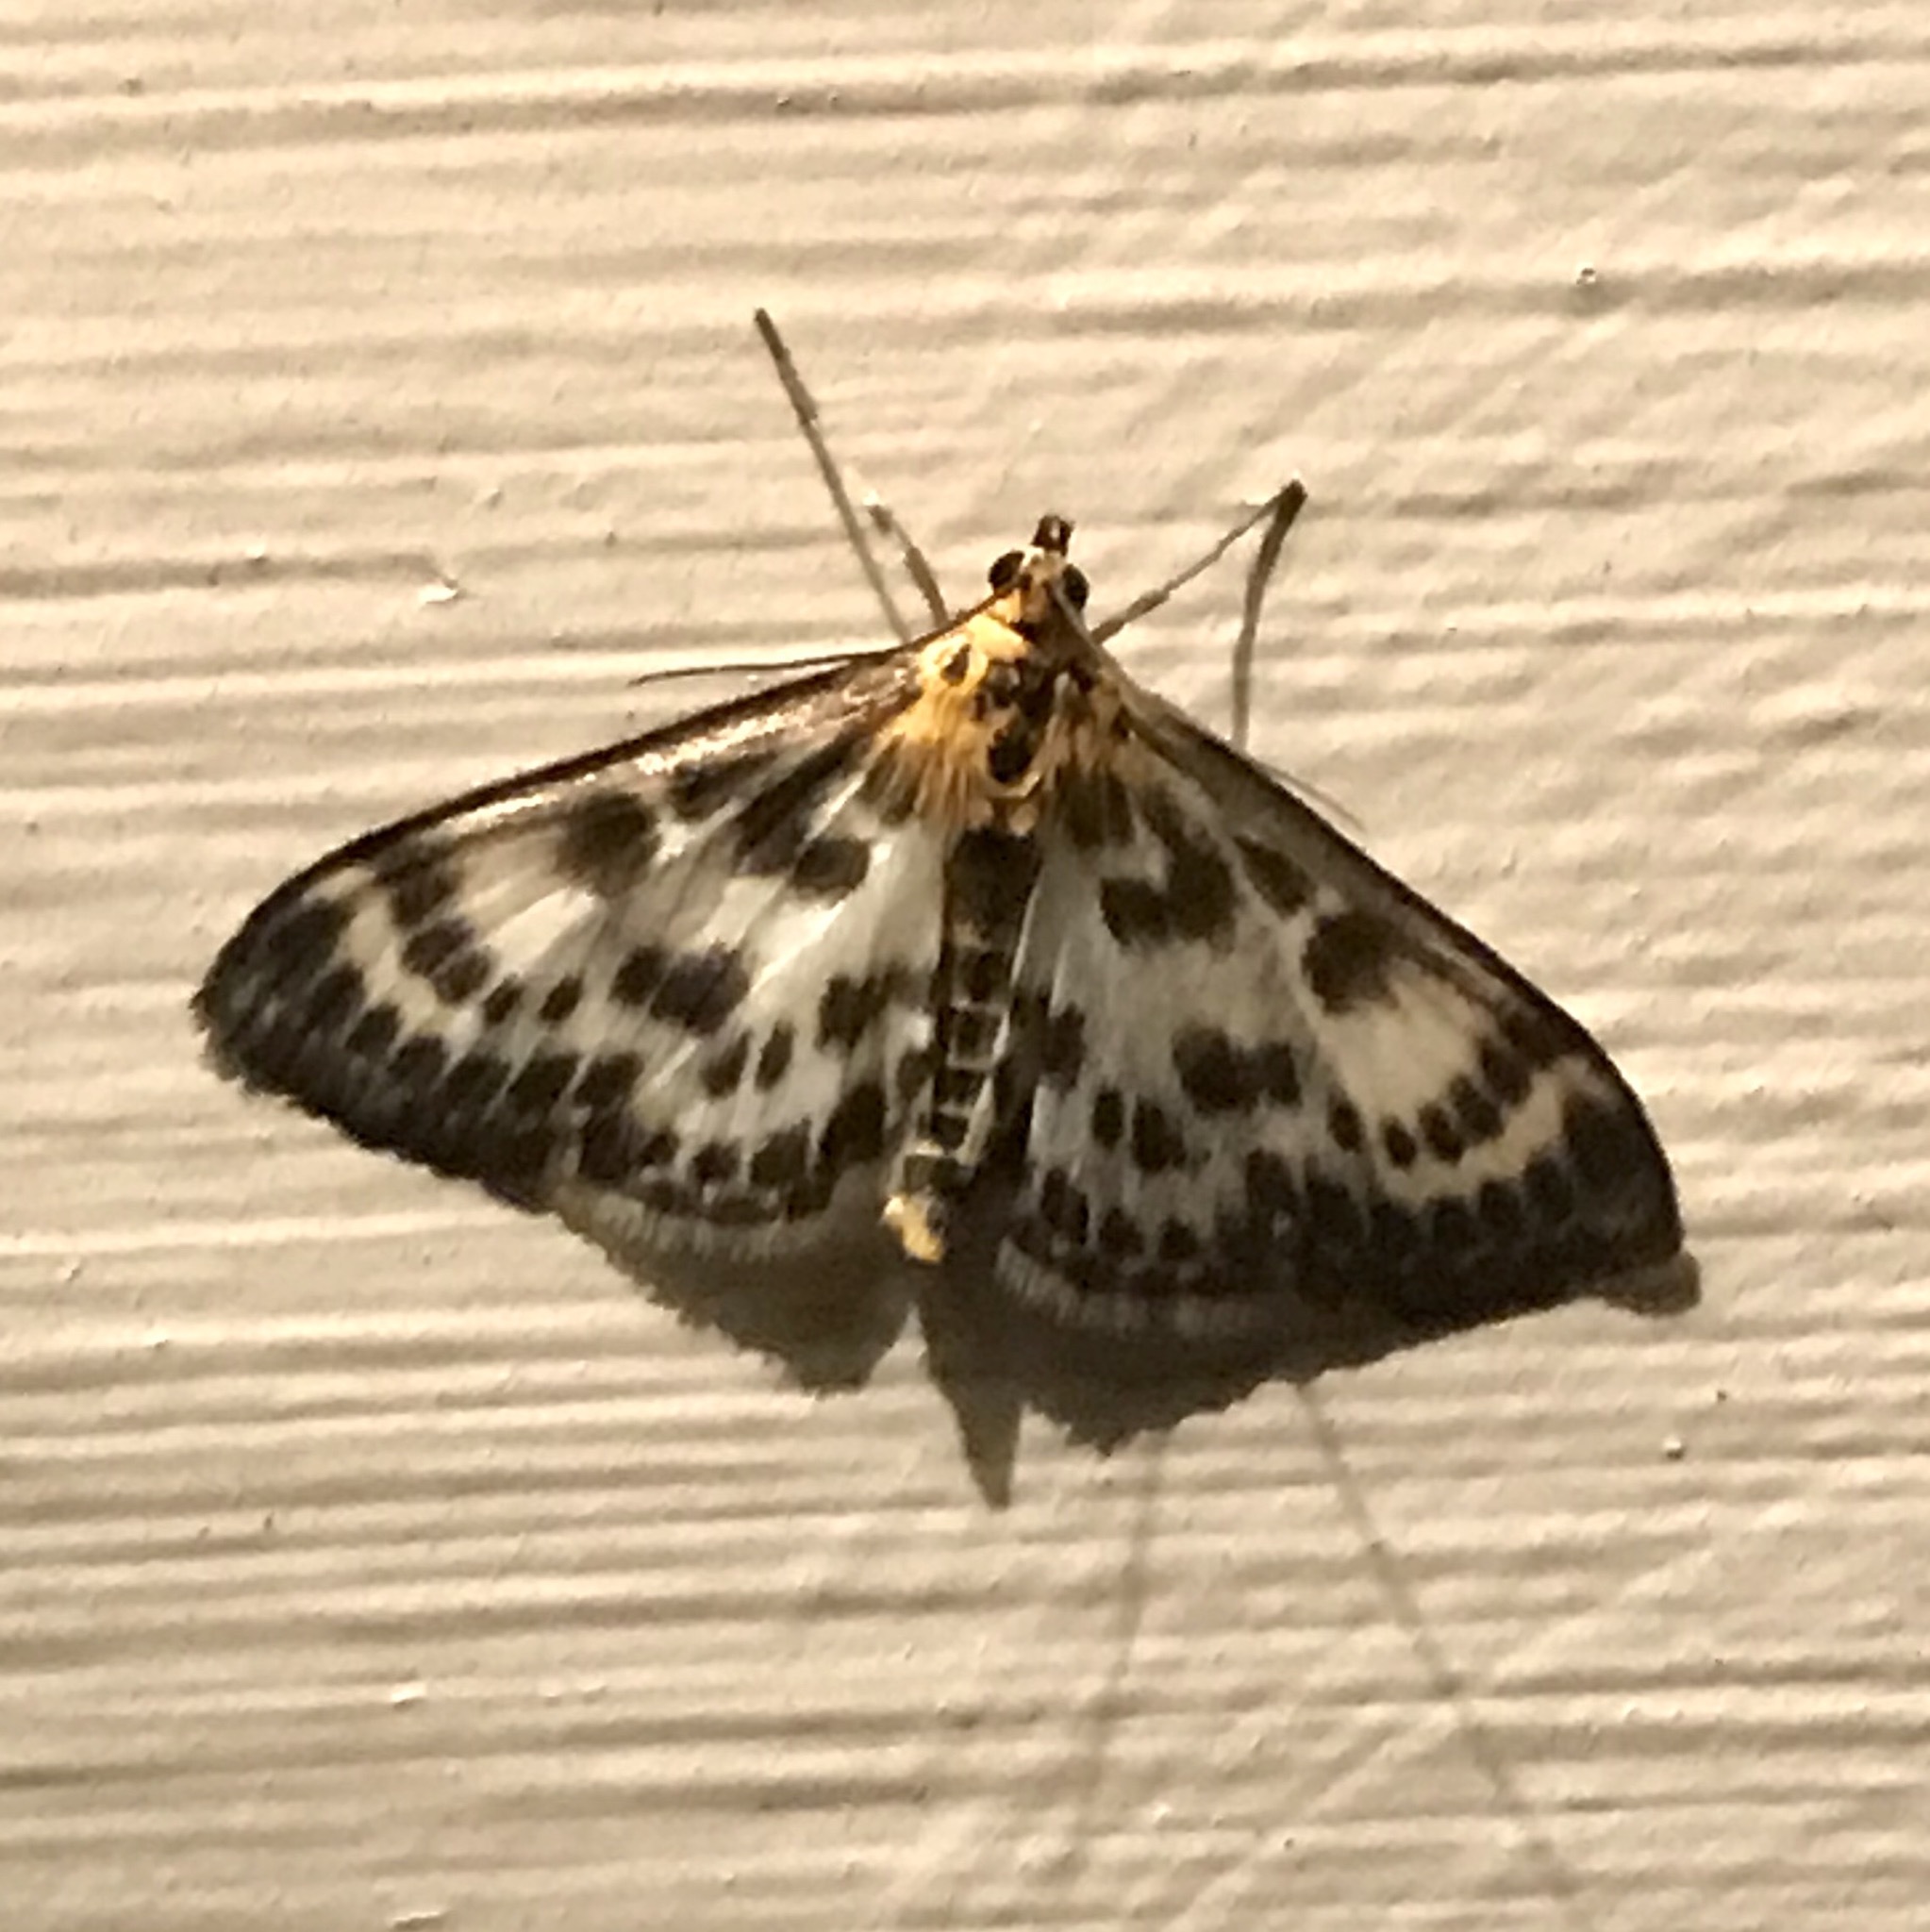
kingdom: Animalia
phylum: Arthropoda
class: Insecta
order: Lepidoptera
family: Crambidae
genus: Anania
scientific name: Anania hortulata
